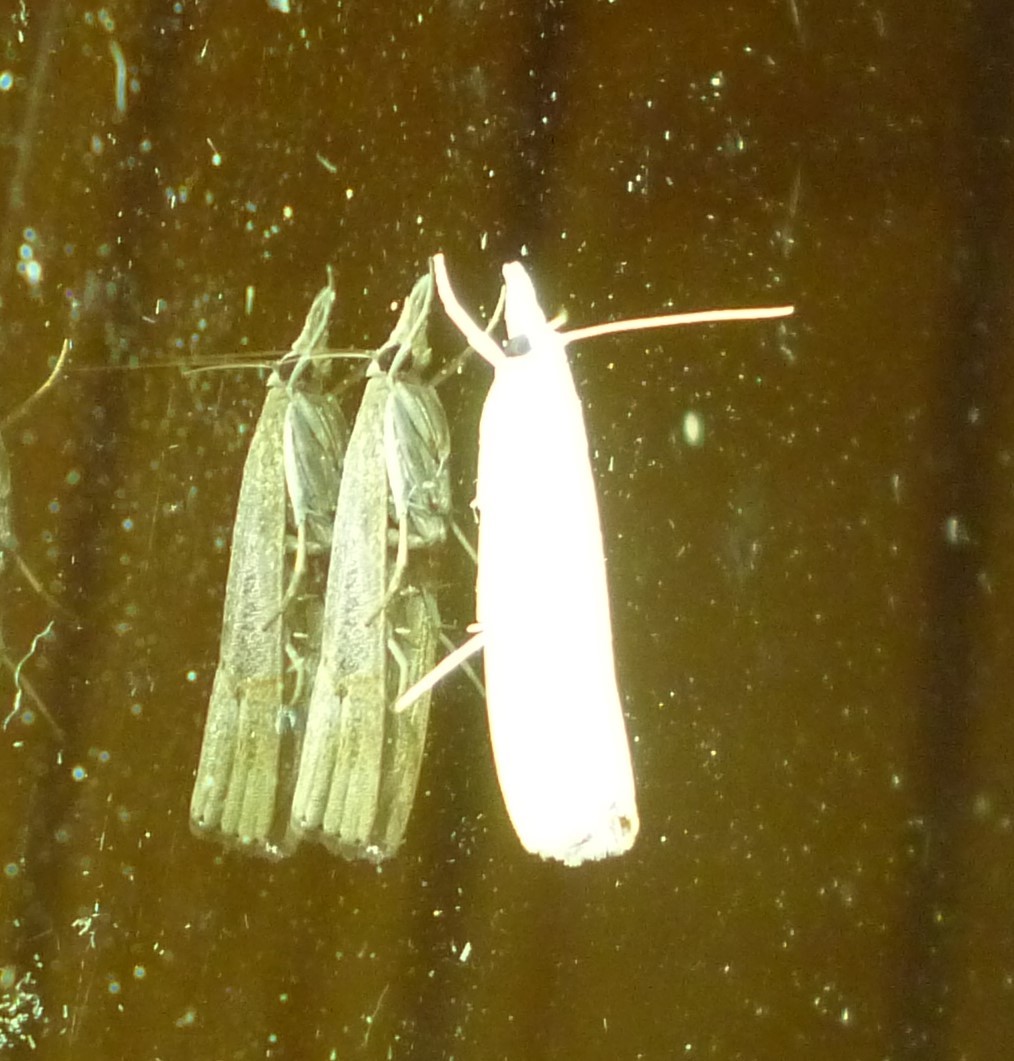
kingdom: Animalia
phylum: Arthropoda
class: Insecta
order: Lepidoptera
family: Crambidae
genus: Parapediasia
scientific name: Parapediasia teterellus
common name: Bluegrass webworm moth
